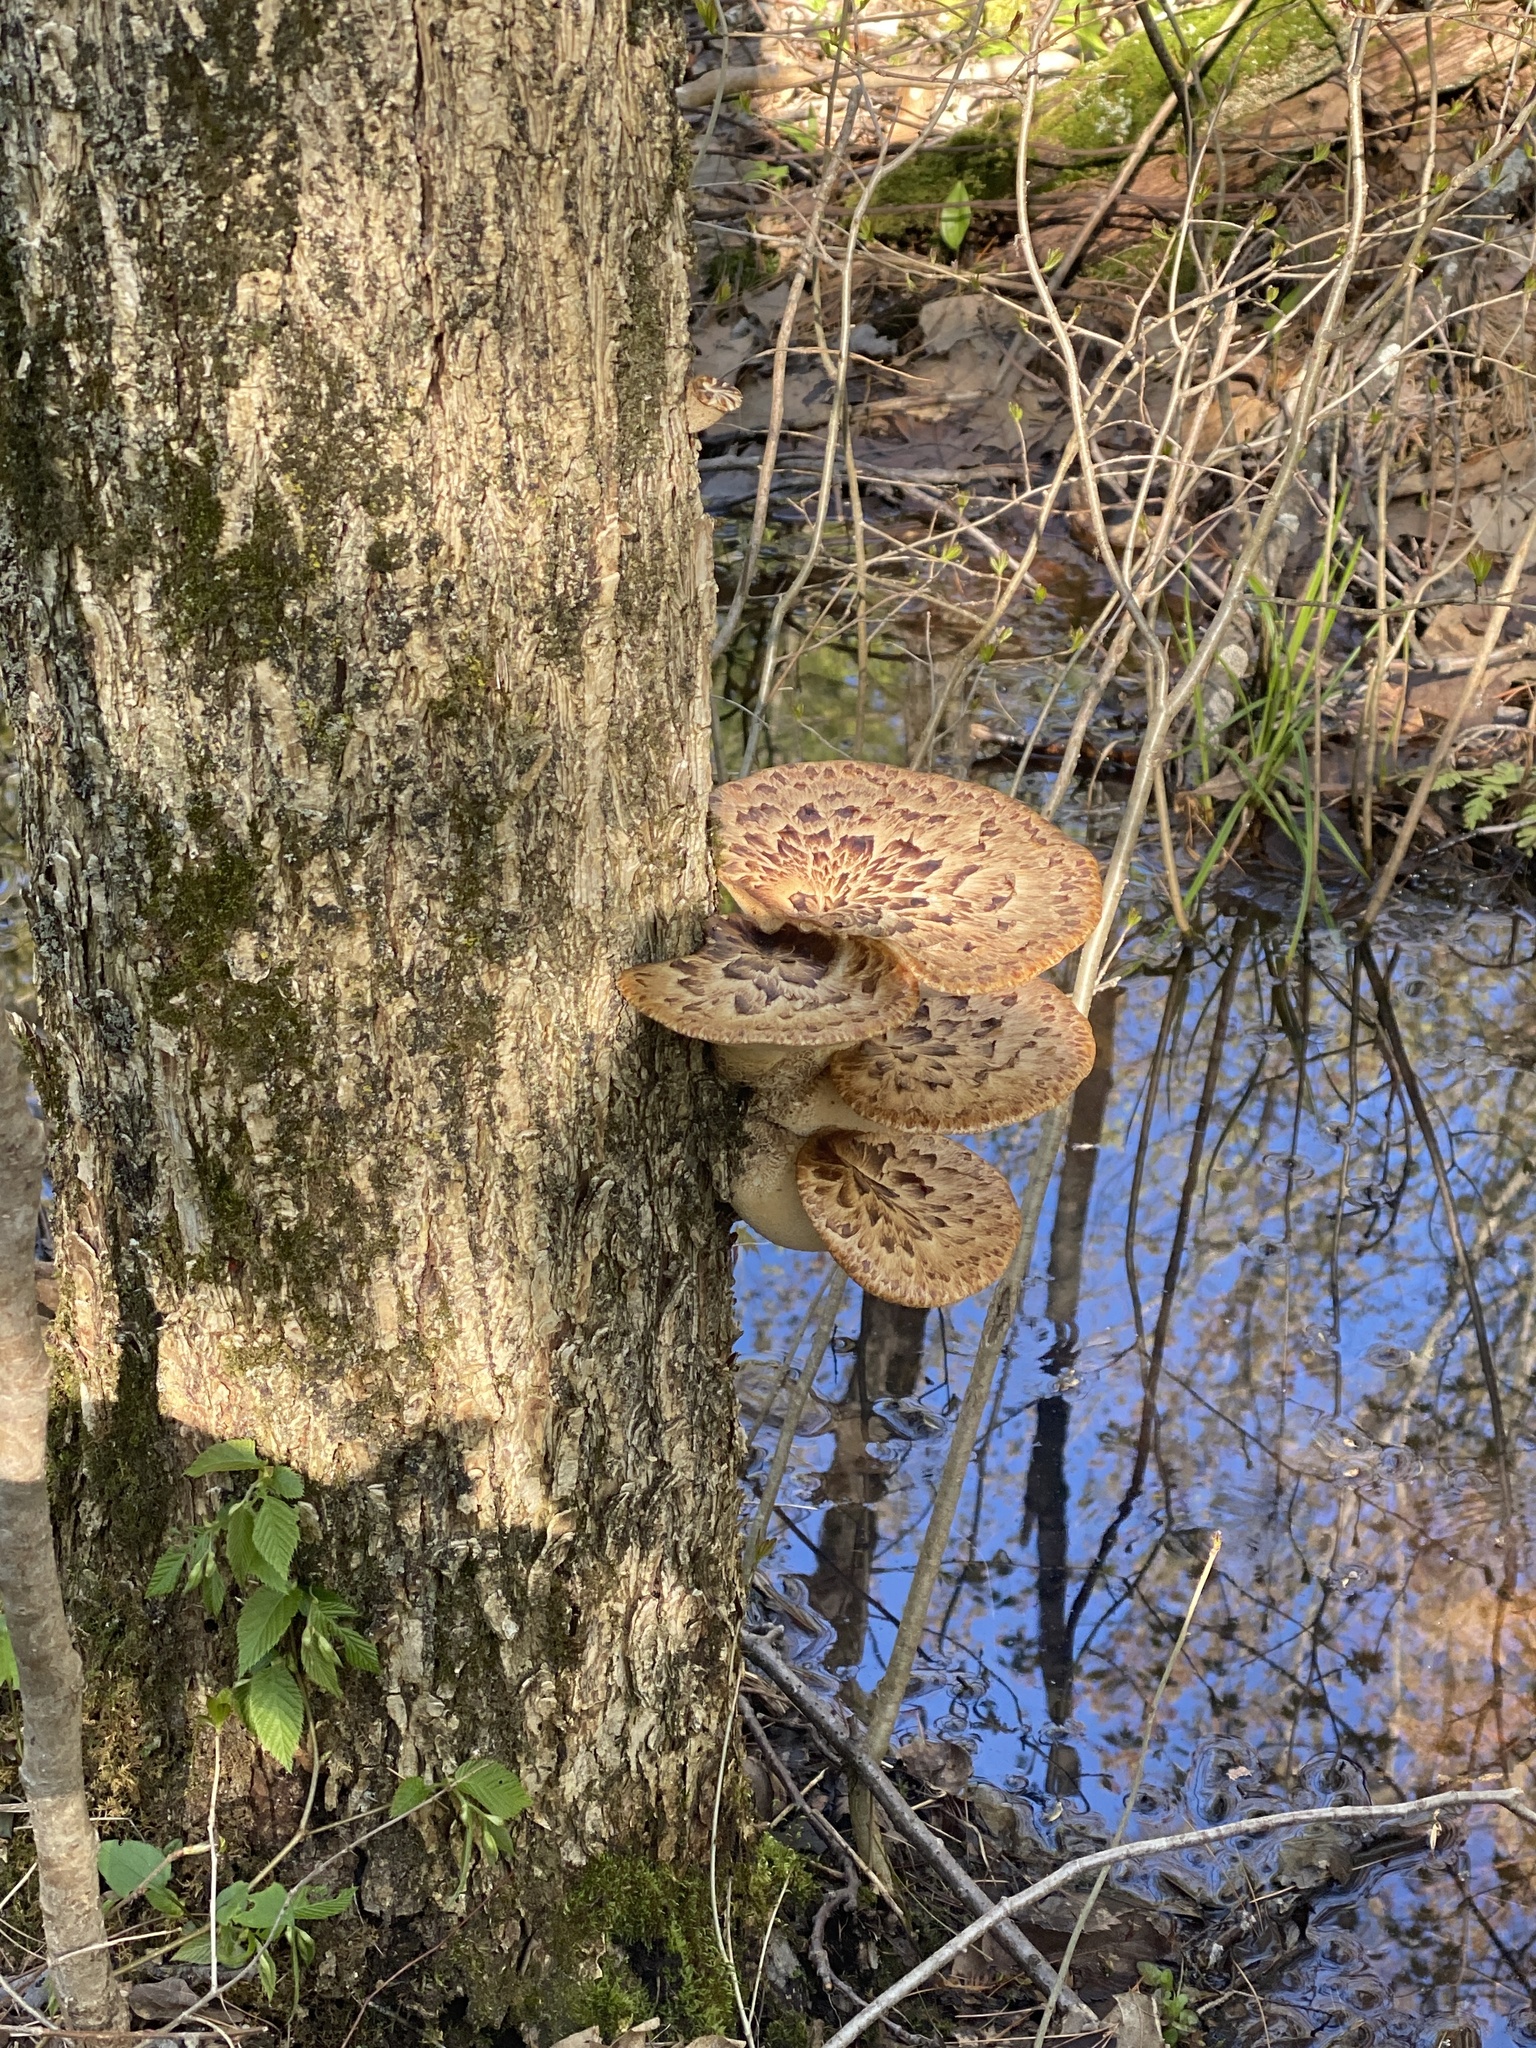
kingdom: Fungi
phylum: Basidiomycota
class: Agaricomycetes
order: Polyporales
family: Polyporaceae
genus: Cerioporus
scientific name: Cerioporus squamosus
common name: Dryad's saddle
